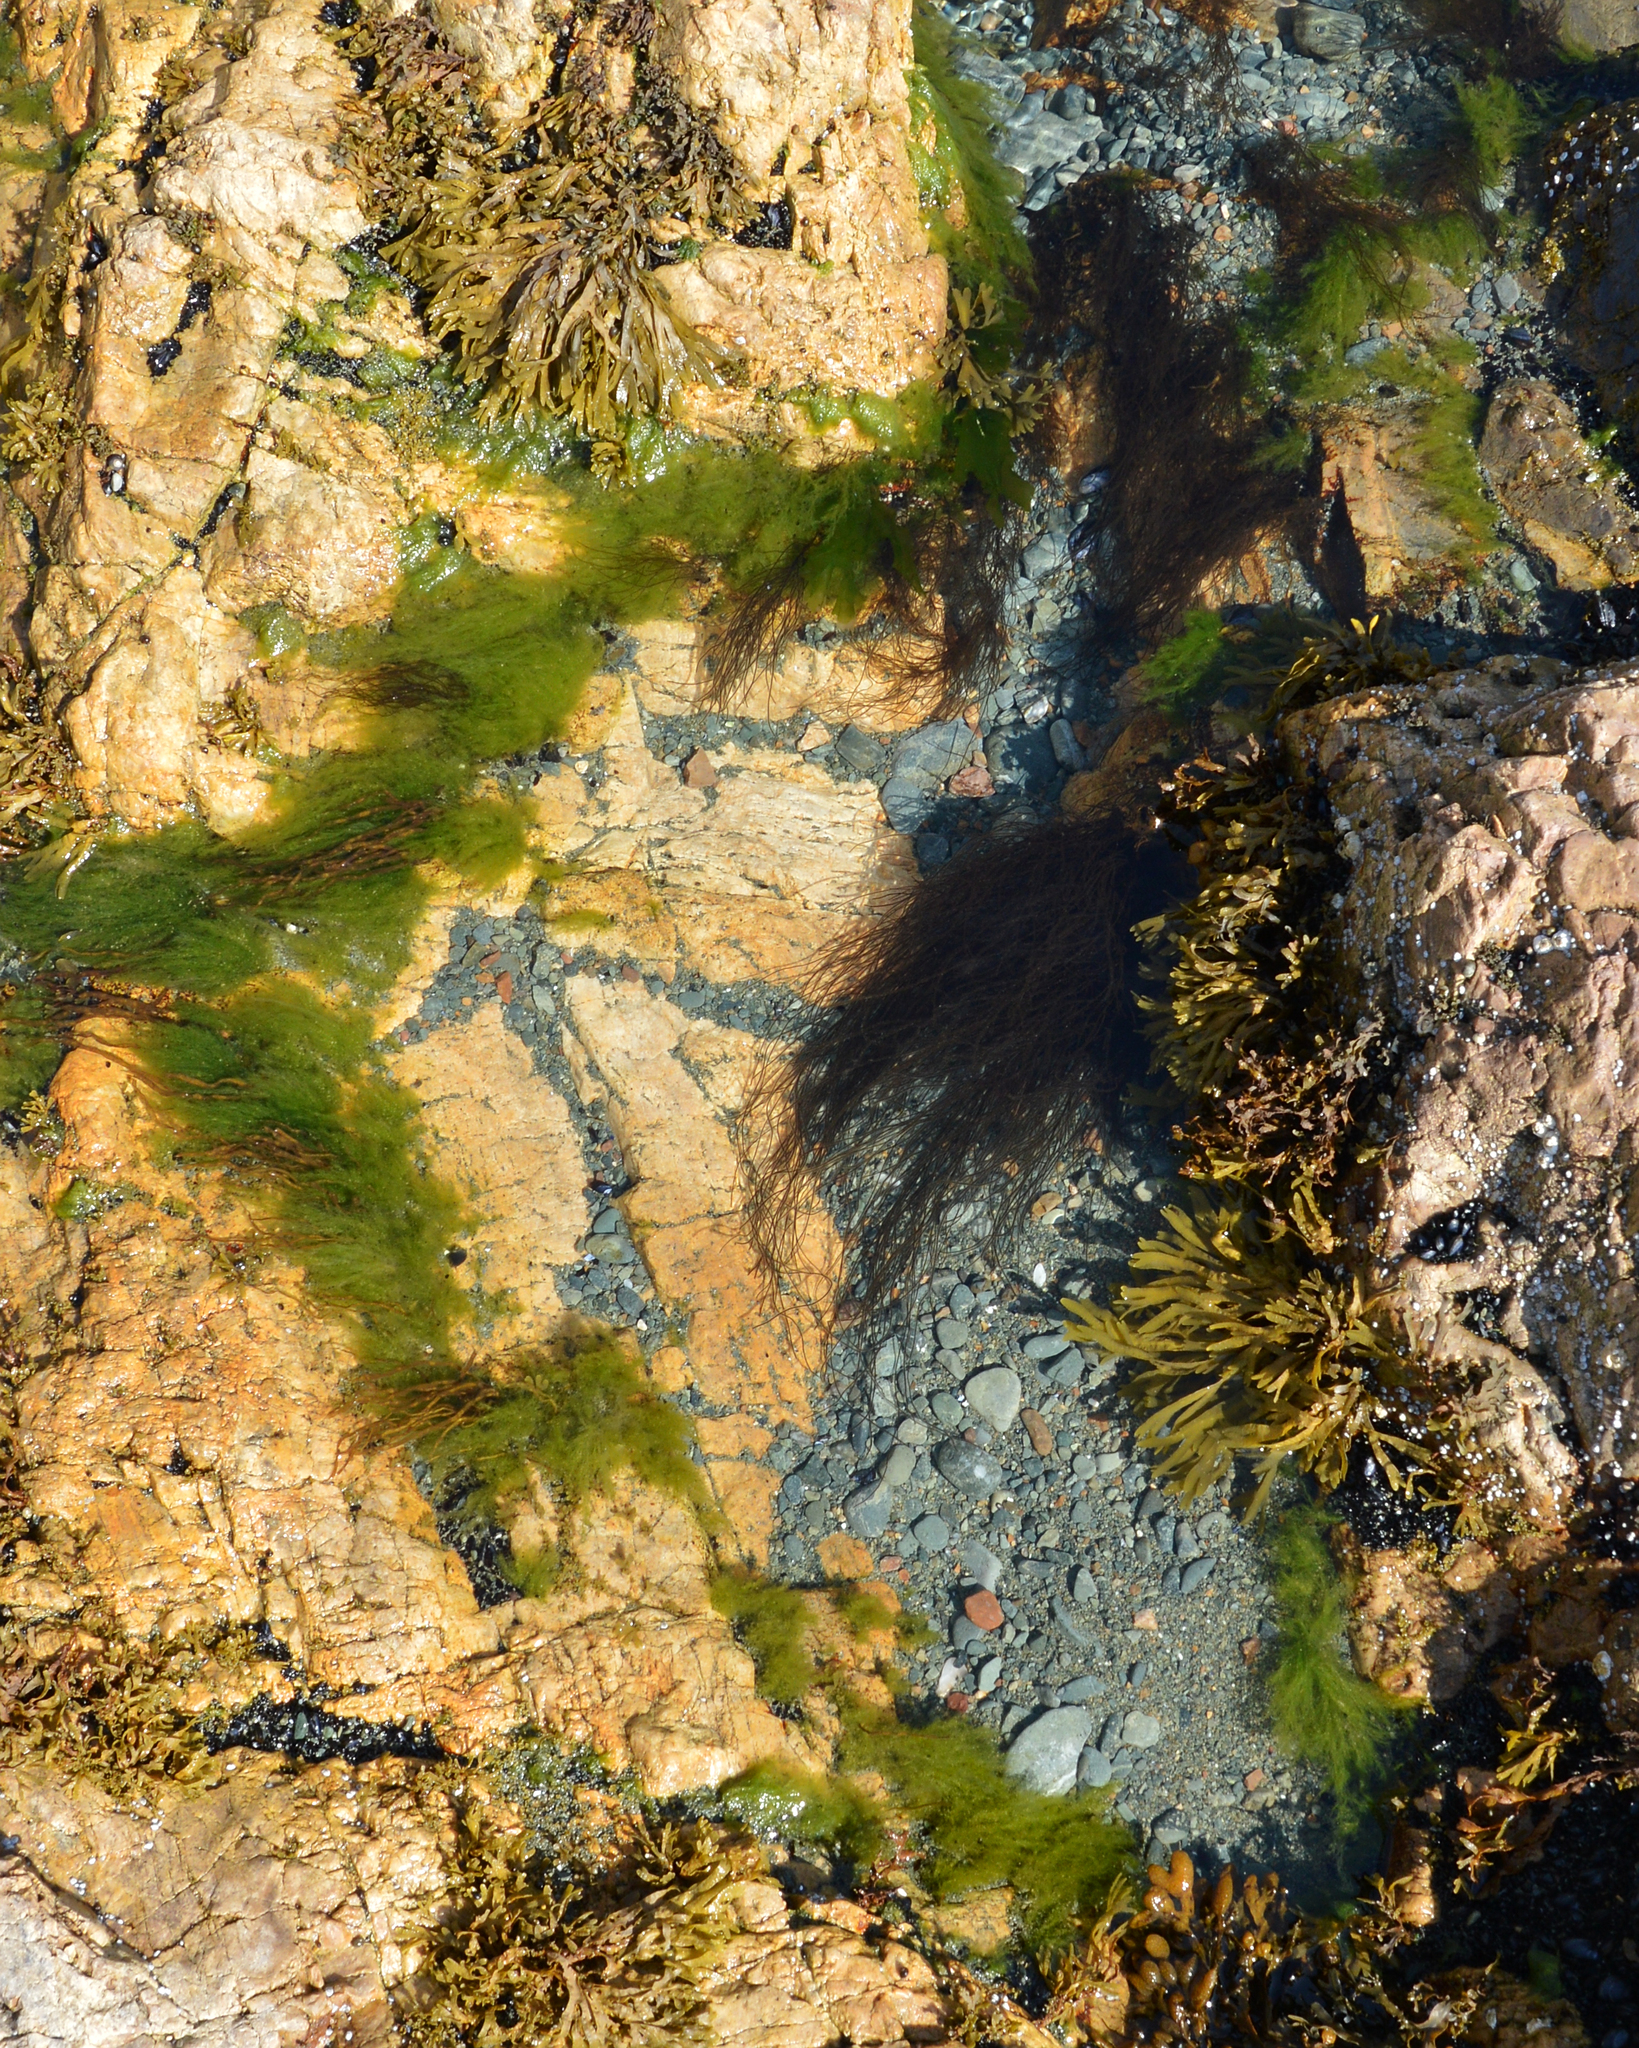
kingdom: Plantae
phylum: Chlorophyta
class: Ulvophyceae
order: Ulvales
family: Ulvaceae
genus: Ulva
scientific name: Ulva intestinalis
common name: Gut weed
